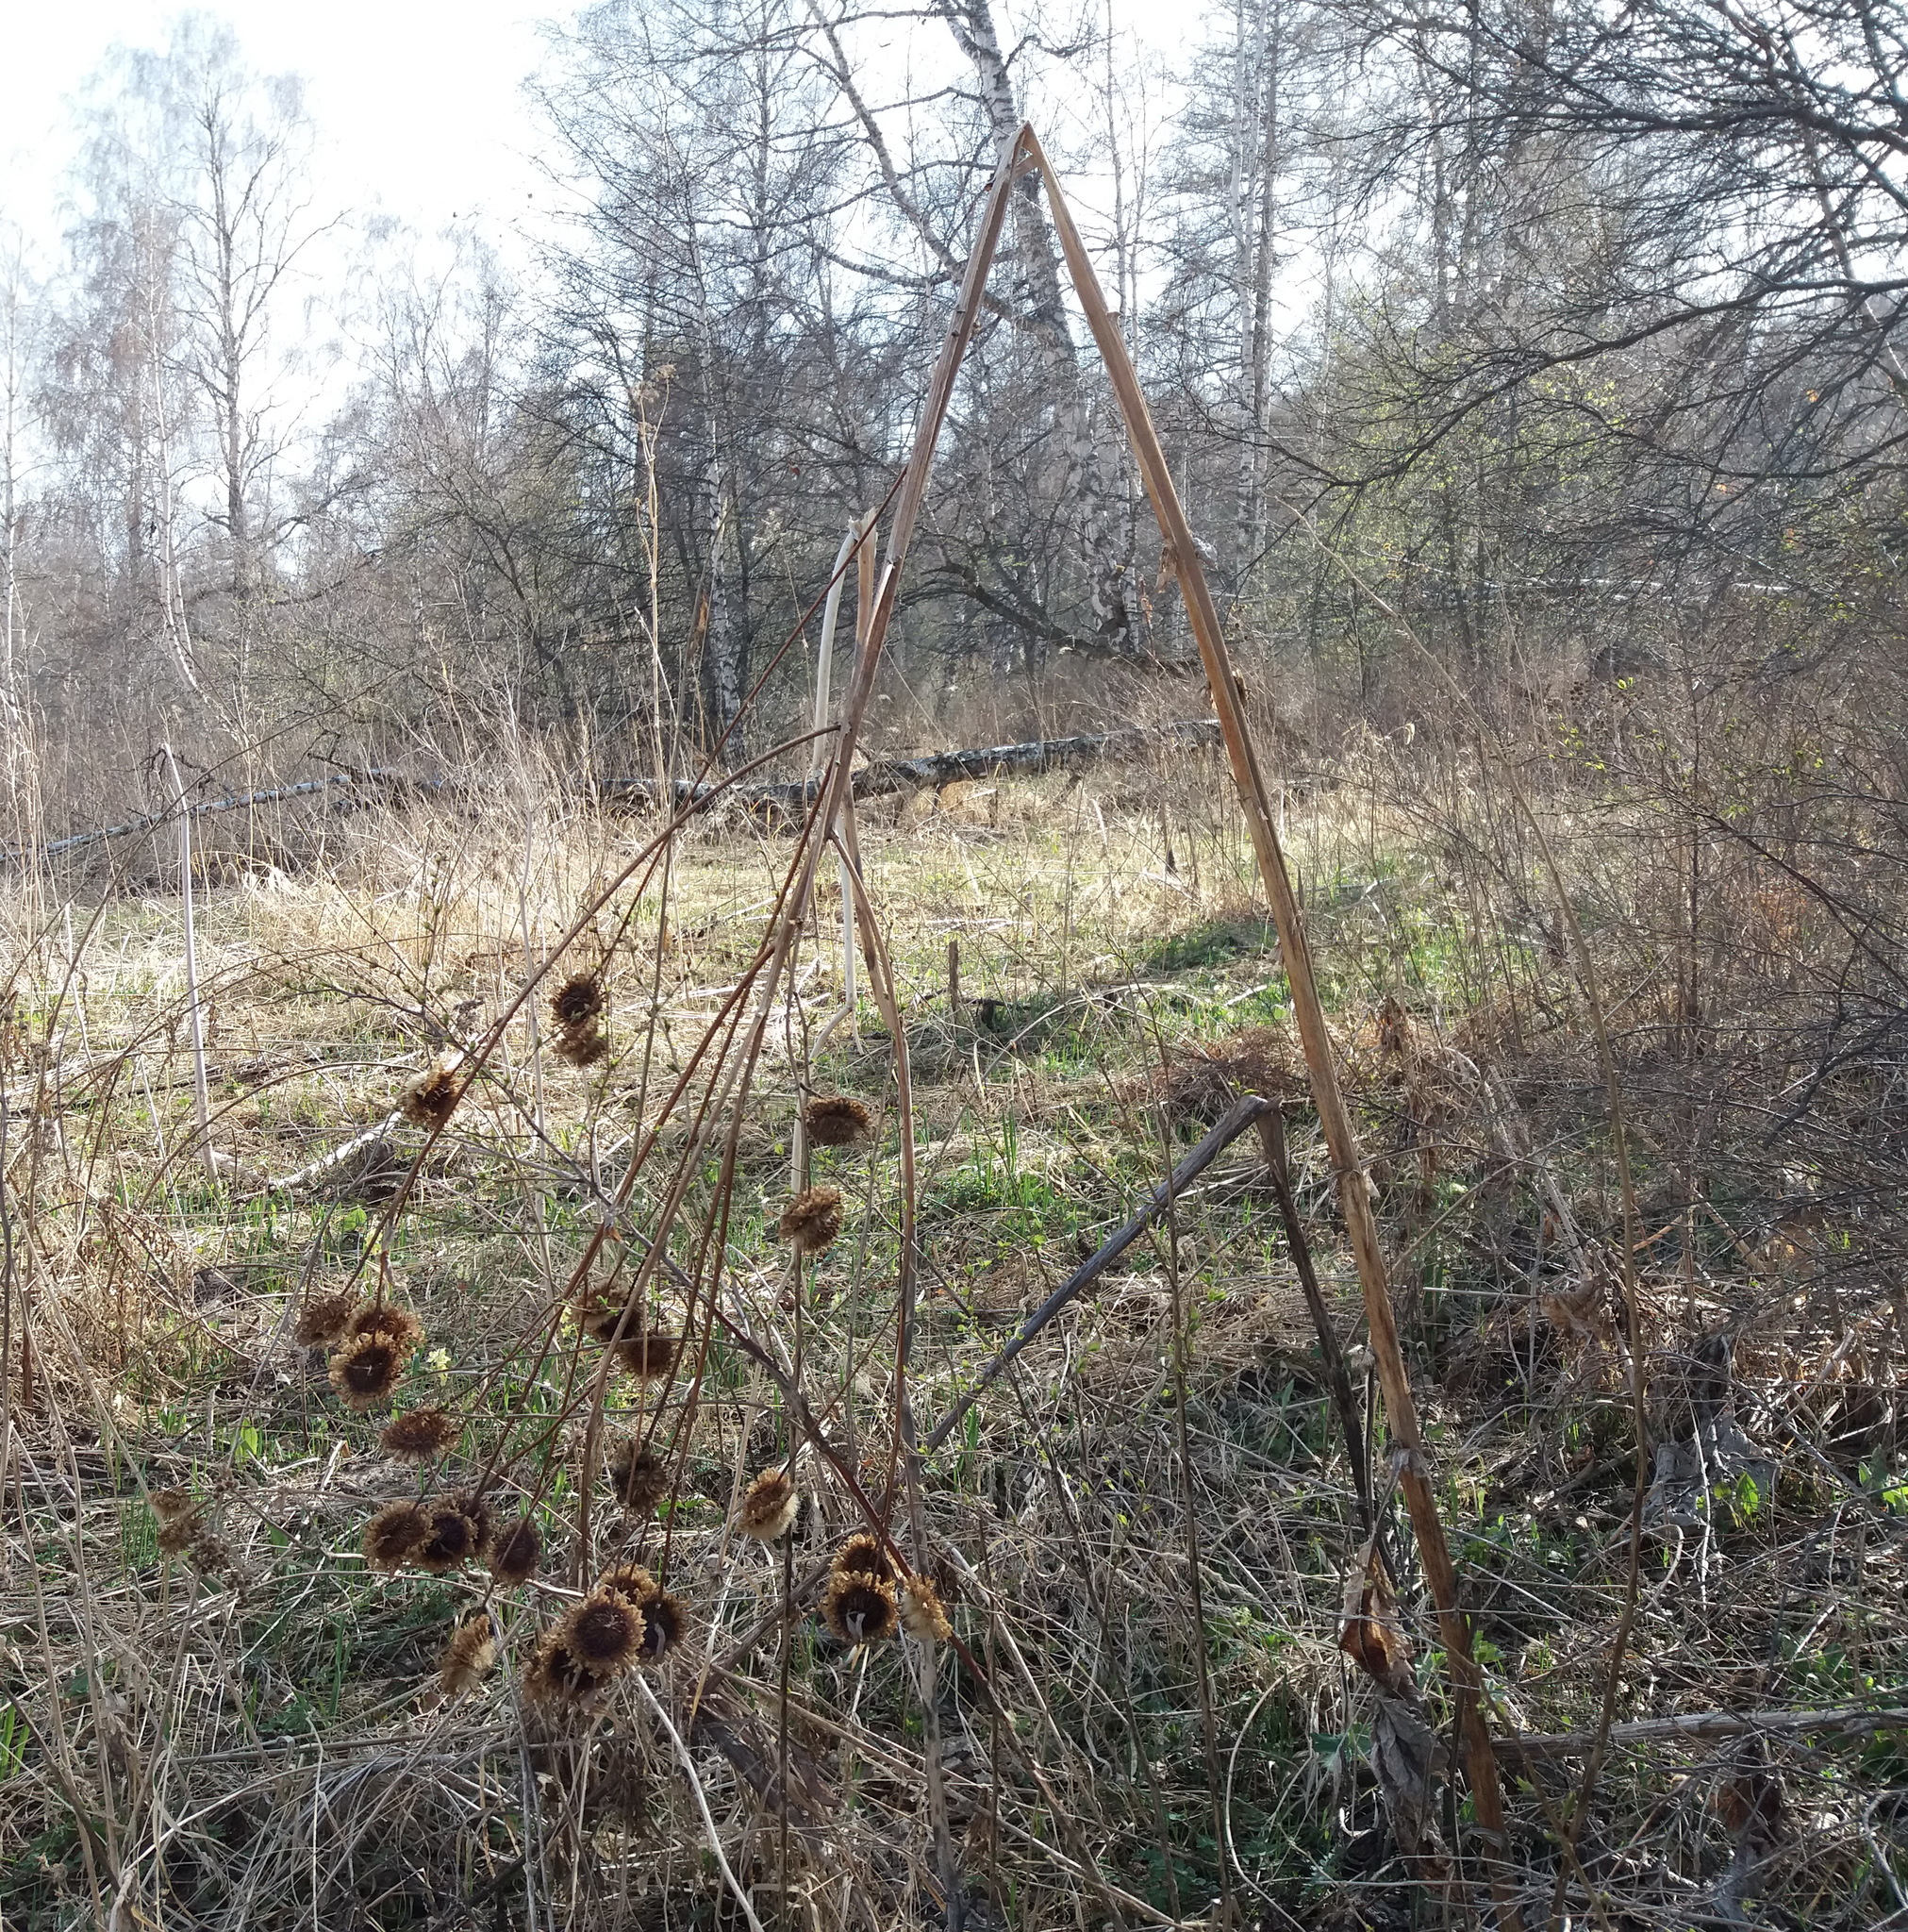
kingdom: Plantae
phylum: Tracheophyta
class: Magnoliopsida
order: Asterales
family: Asteraceae
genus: Alfredia
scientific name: Alfredia cernua
